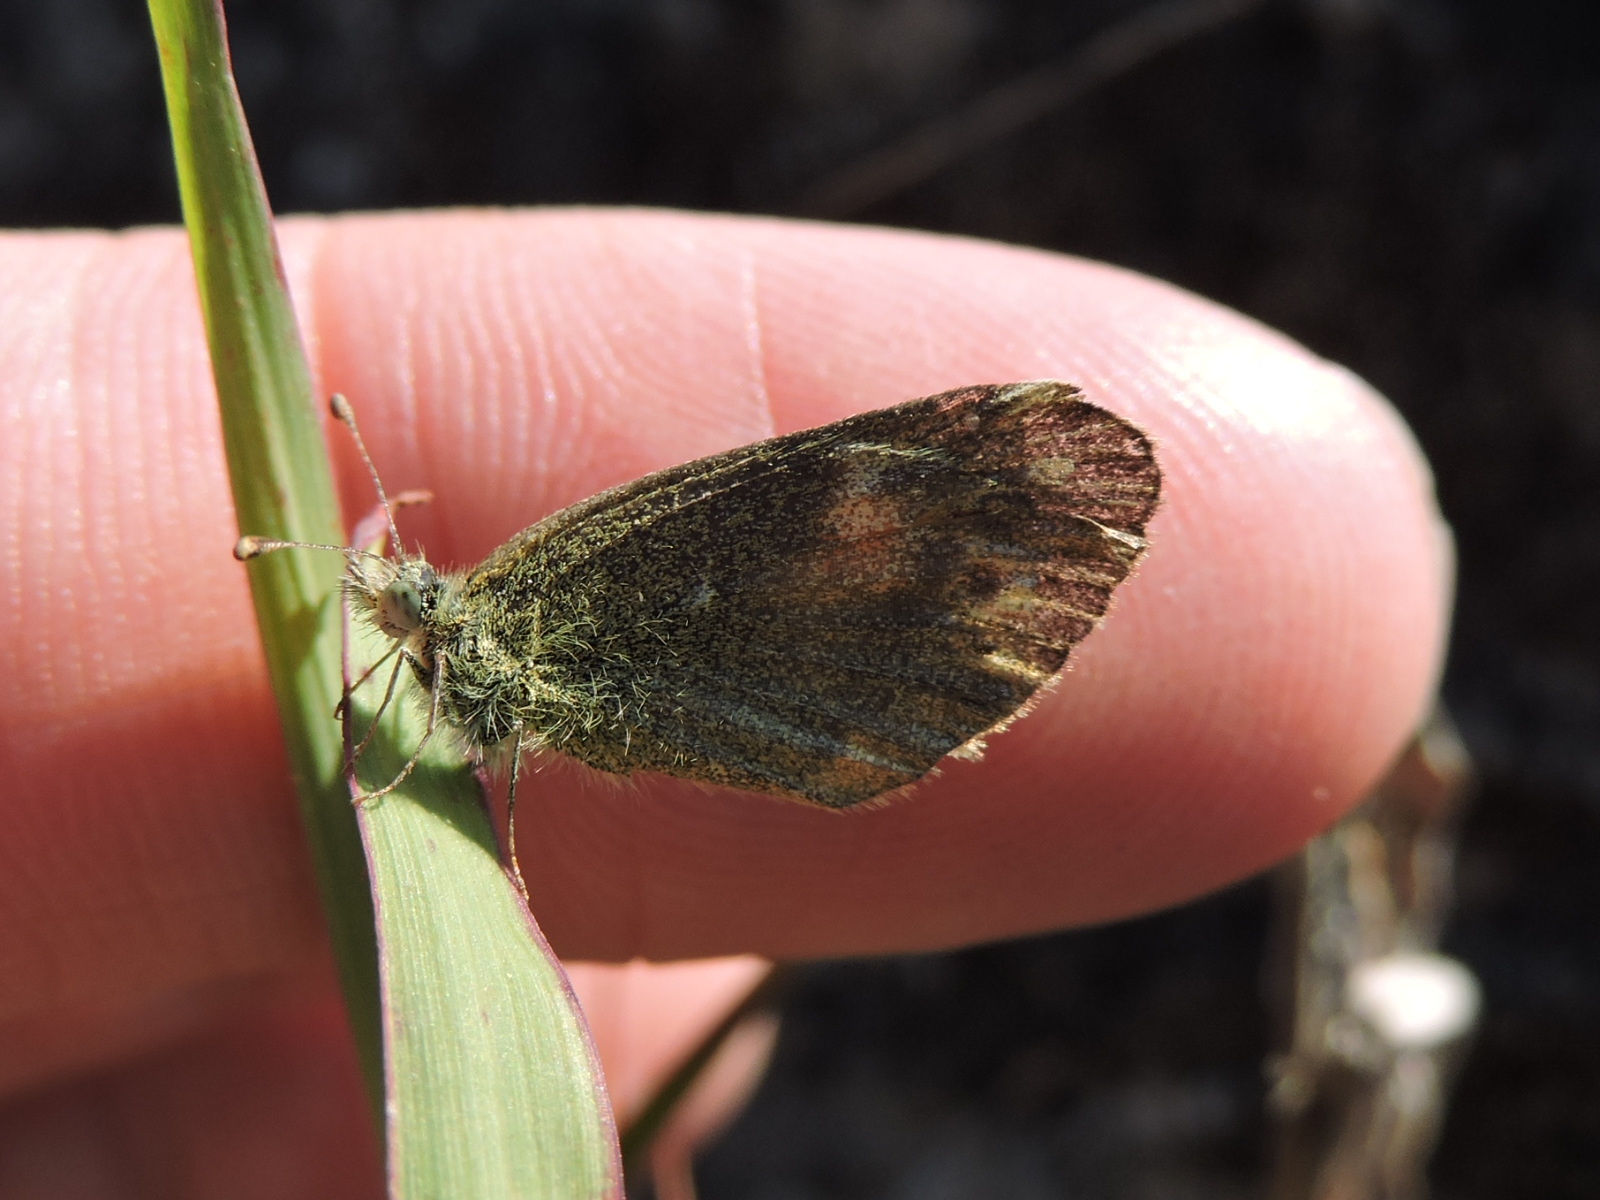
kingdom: Animalia
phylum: Arthropoda
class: Insecta
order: Lepidoptera
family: Pieridae
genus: Nathalis
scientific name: Nathalis iole
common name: Dainty sulphur
